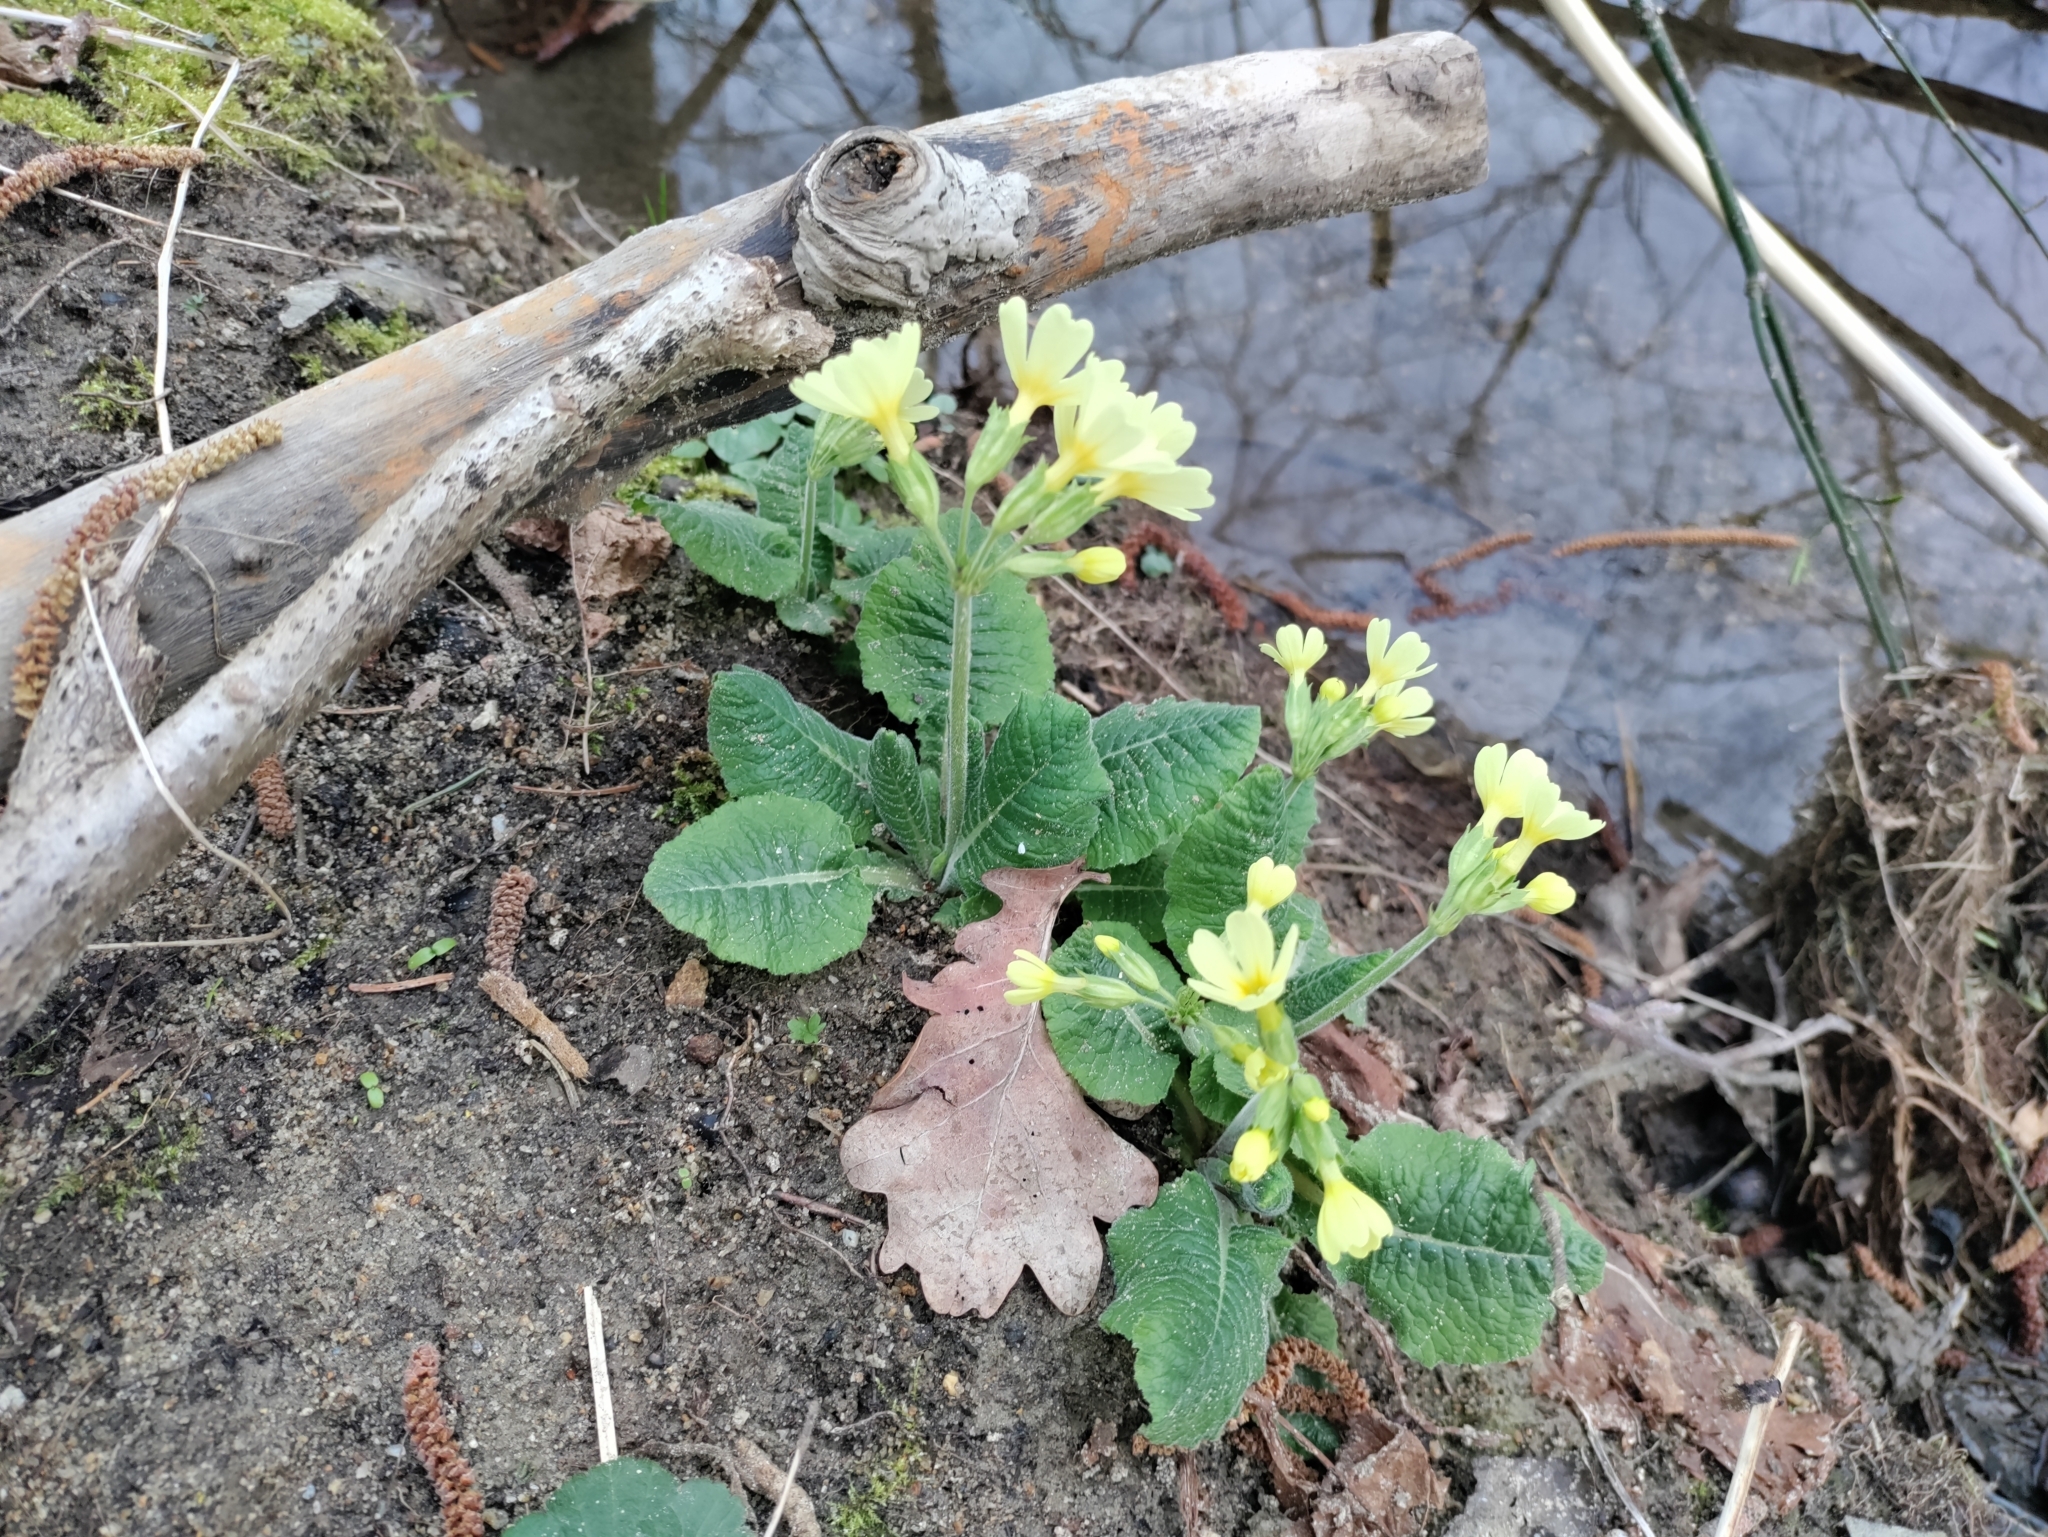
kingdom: Plantae
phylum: Tracheophyta
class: Magnoliopsida
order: Ericales
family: Primulaceae
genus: Primula
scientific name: Primula elatior
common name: Oxlip
